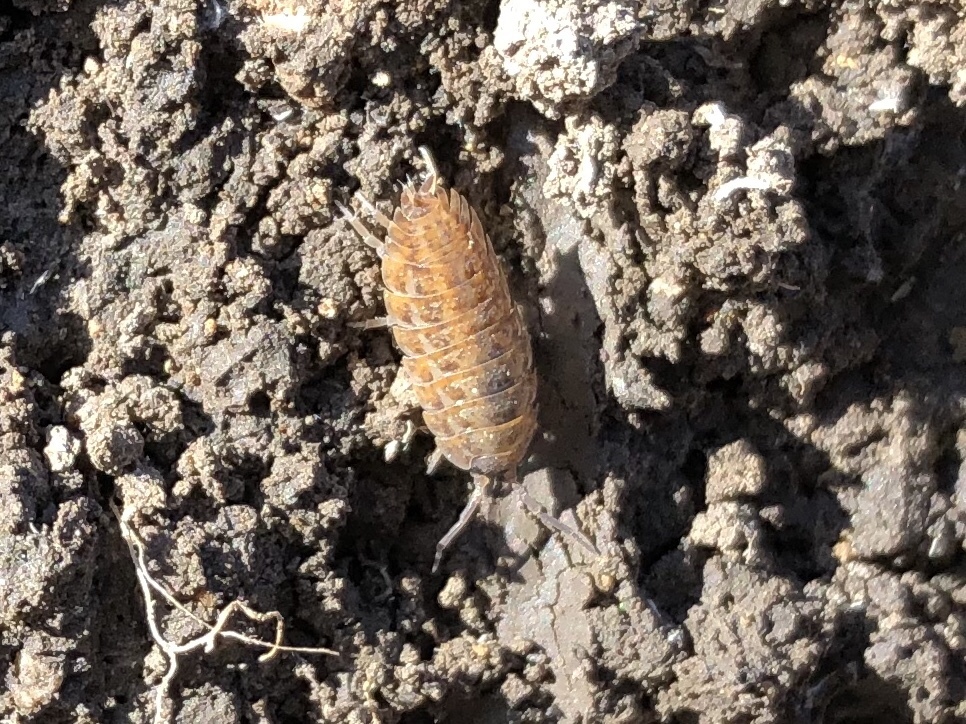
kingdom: Animalia
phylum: Arthropoda
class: Malacostraca
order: Isopoda
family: Trachelipodidae
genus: Trachelipus
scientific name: Trachelipus rathkii
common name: Isopod
